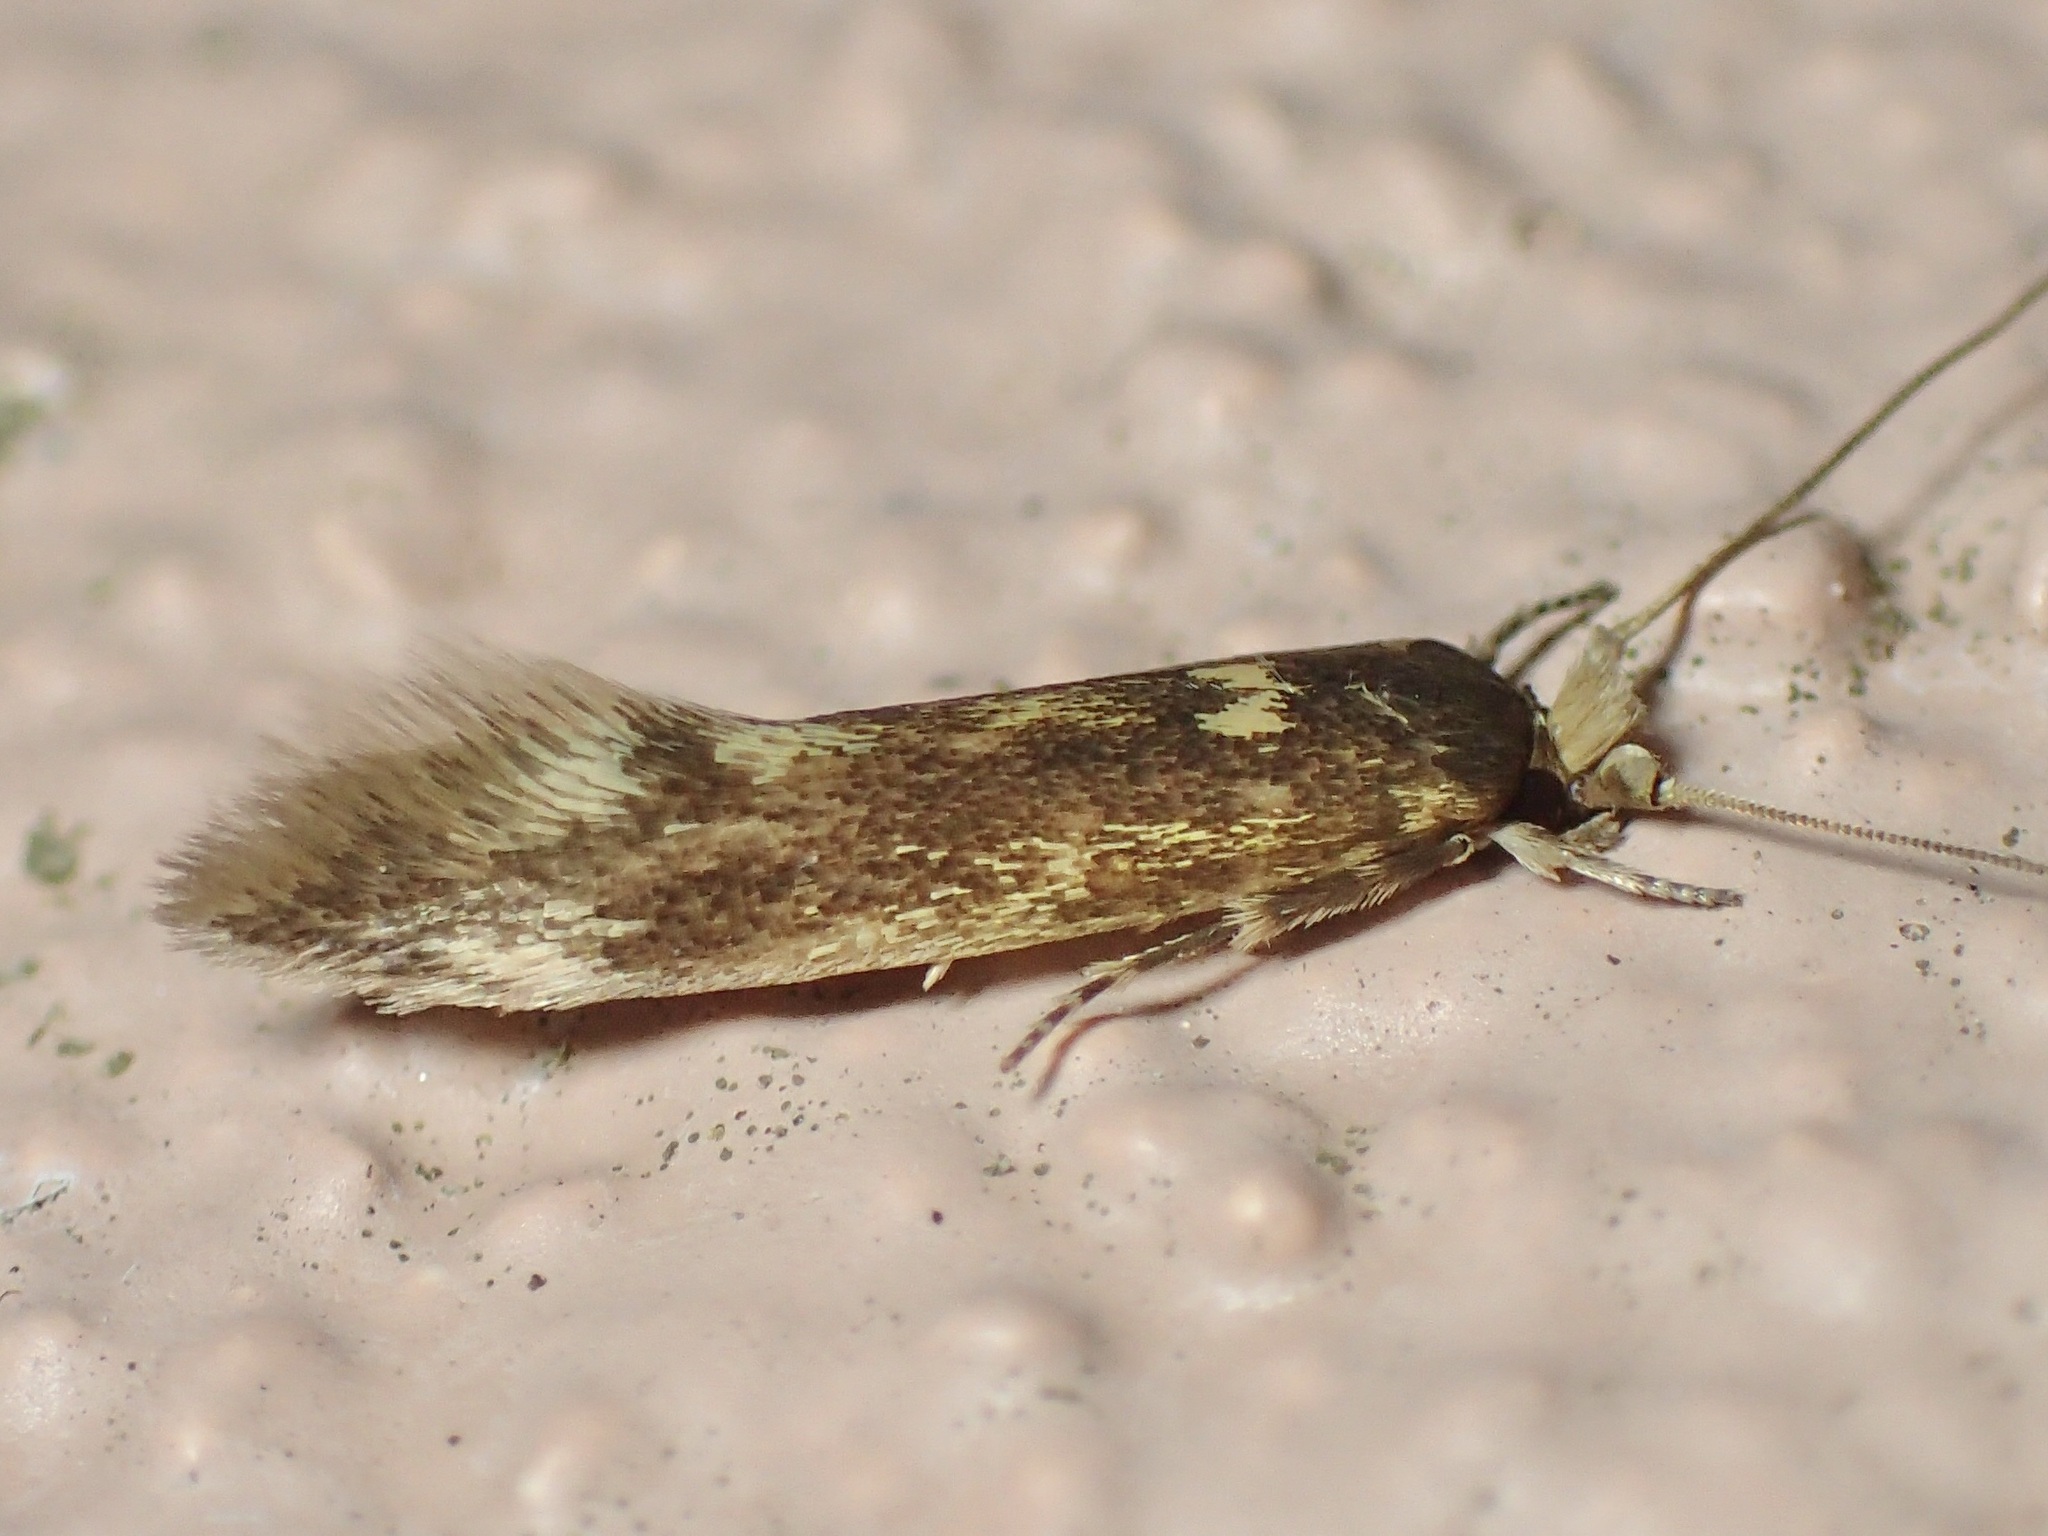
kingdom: Animalia
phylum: Arthropoda
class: Insecta
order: Lepidoptera
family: Tineidae
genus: Opogona
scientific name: Opogona omoscopa
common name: Moth
